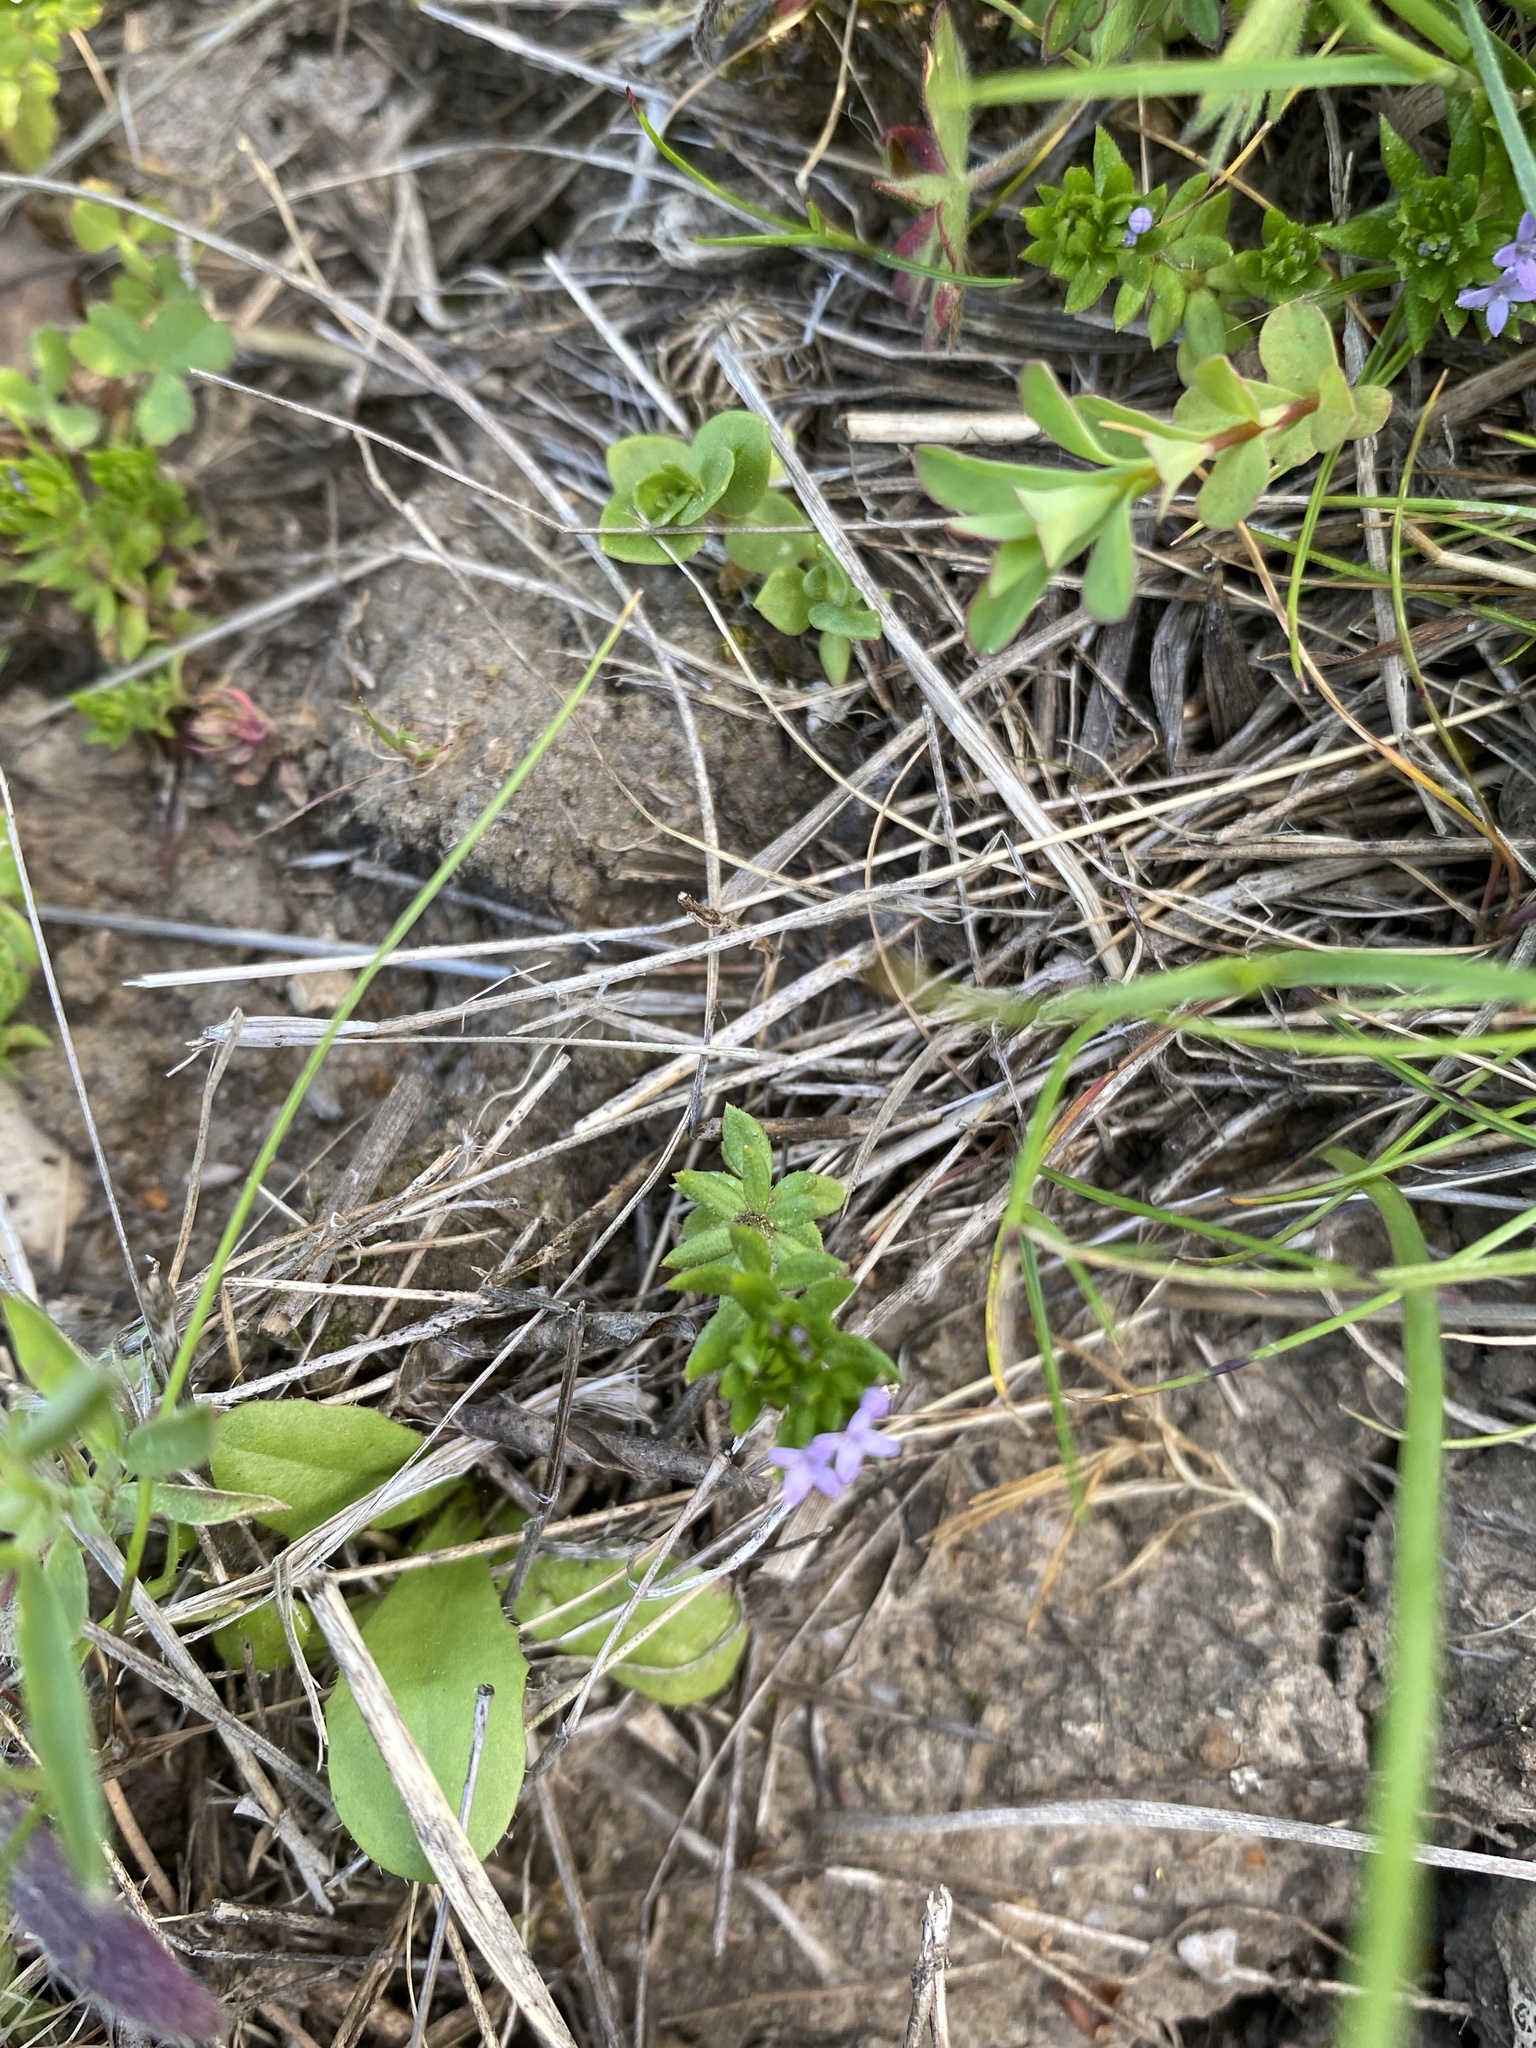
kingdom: Plantae
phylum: Tracheophyta
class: Magnoliopsida
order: Gentianales
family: Rubiaceae
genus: Sherardia
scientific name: Sherardia arvensis
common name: Field madder
